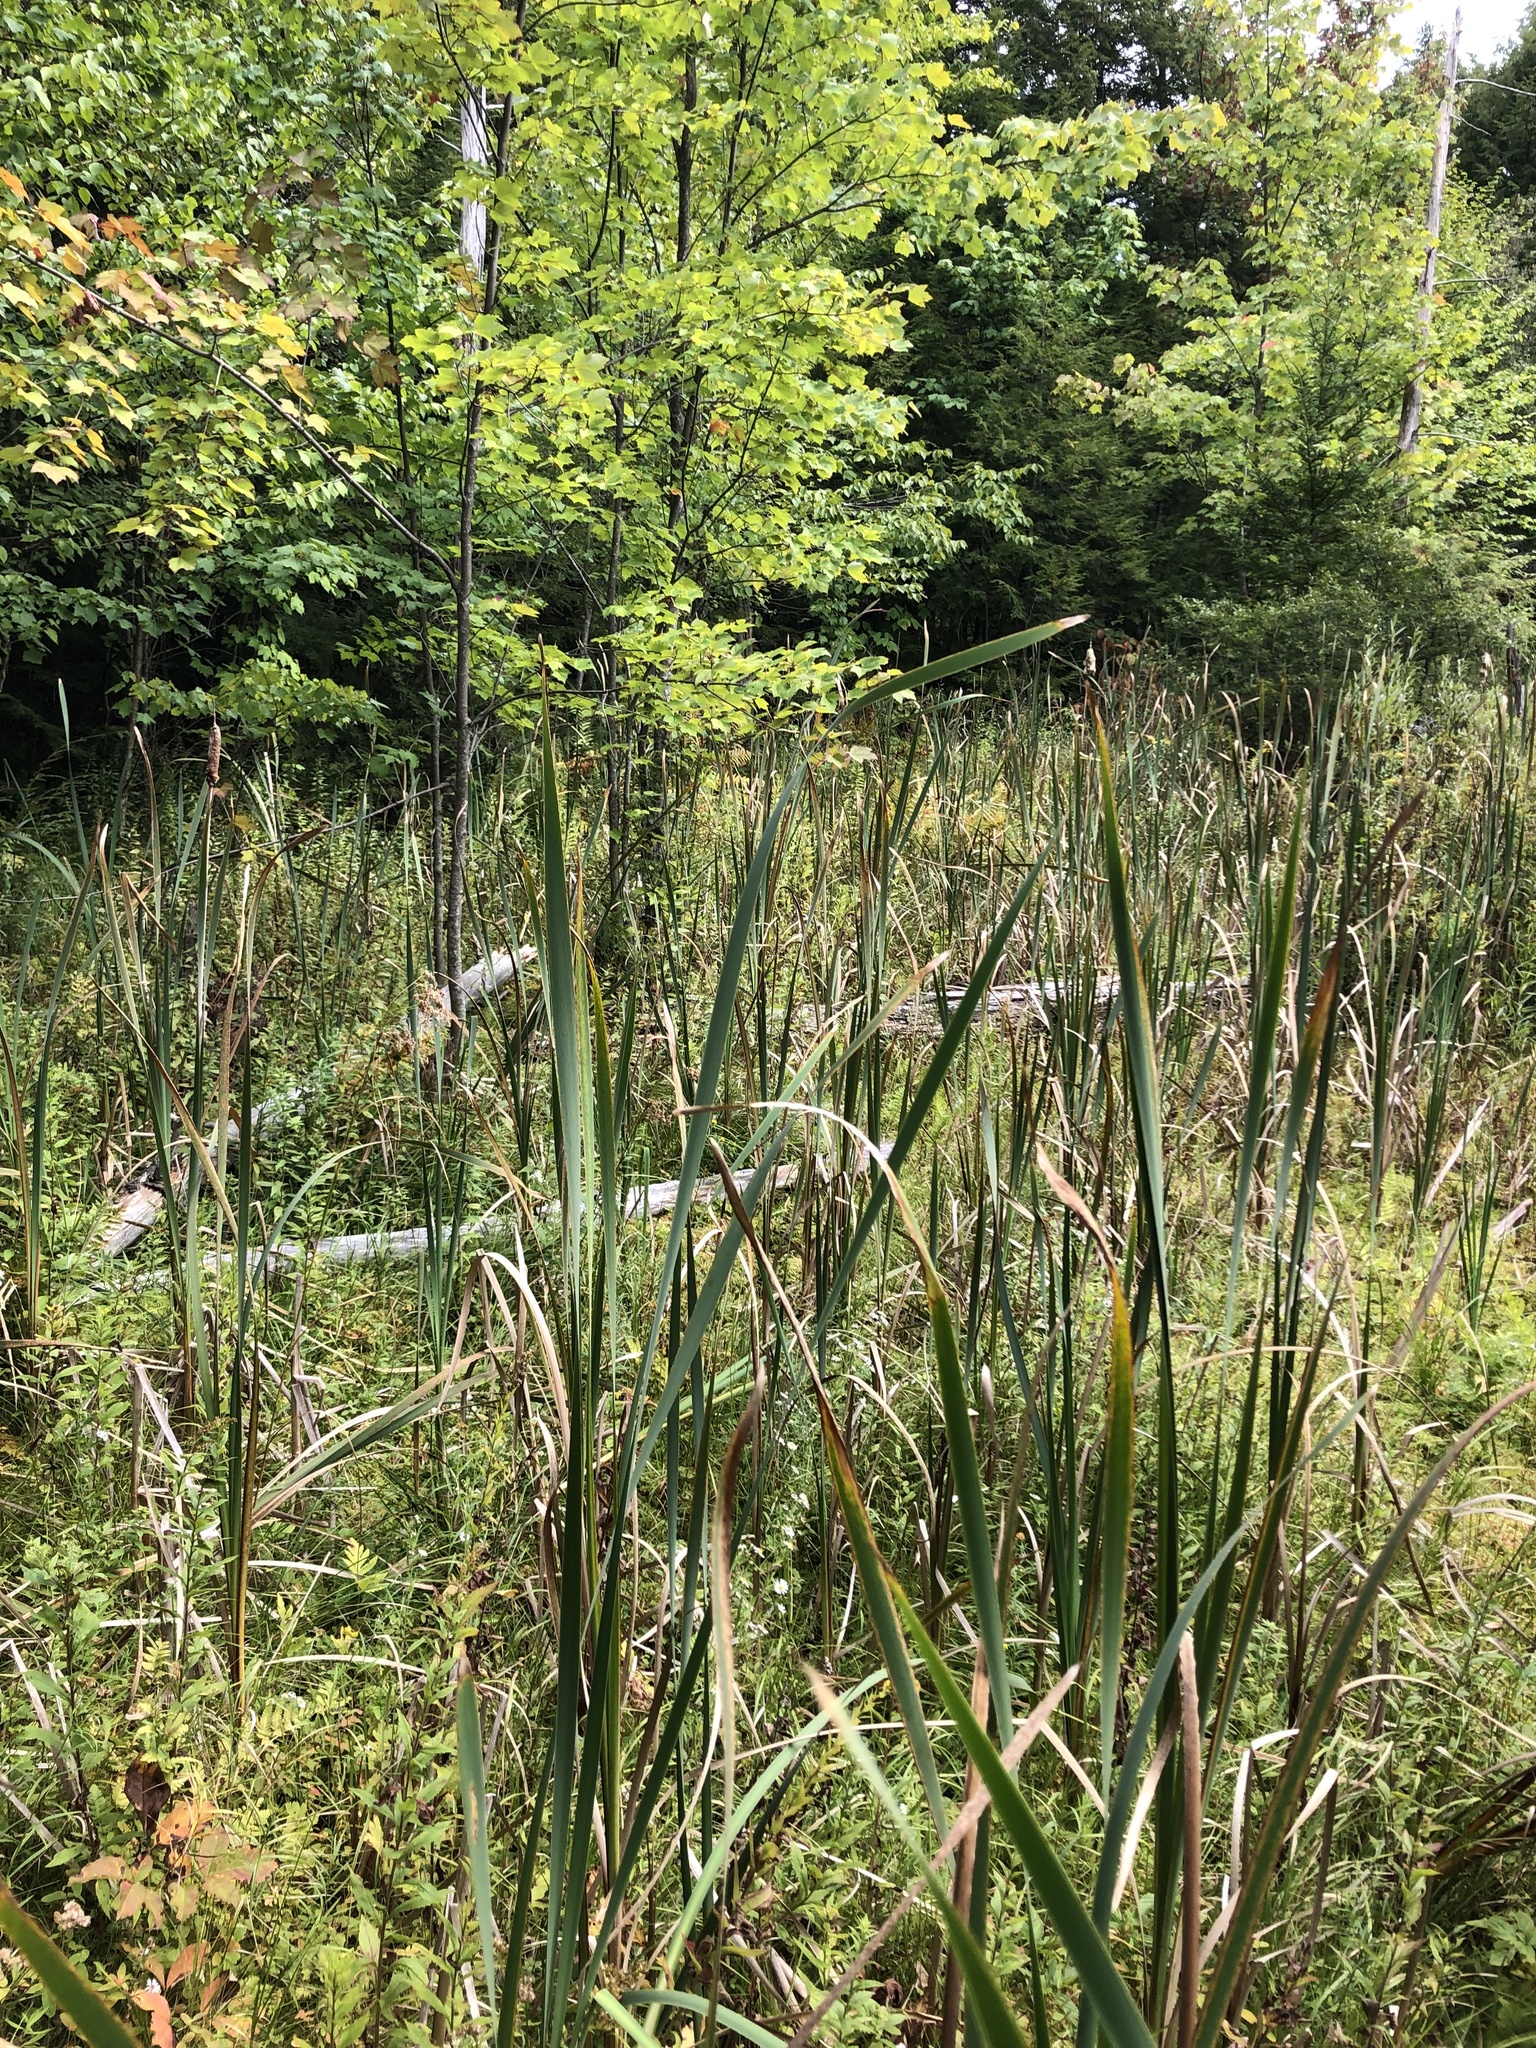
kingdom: Plantae
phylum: Tracheophyta
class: Liliopsida
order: Poales
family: Typhaceae
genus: Typha
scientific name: Typha latifolia
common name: Broadleaf cattail
